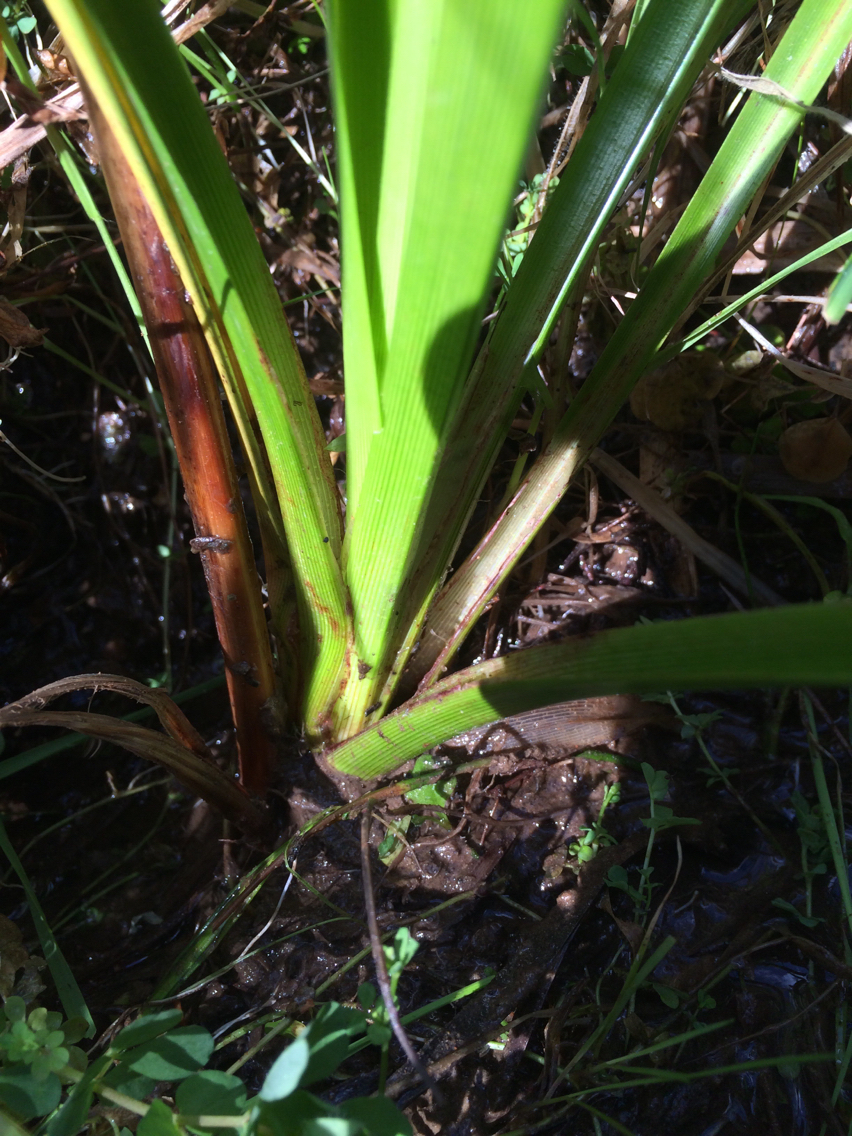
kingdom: Plantae
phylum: Tracheophyta
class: Liliopsida
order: Poales
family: Cyperaceae
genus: Cyperus
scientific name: Cyperus eragrostis
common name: Tall flatsedge
